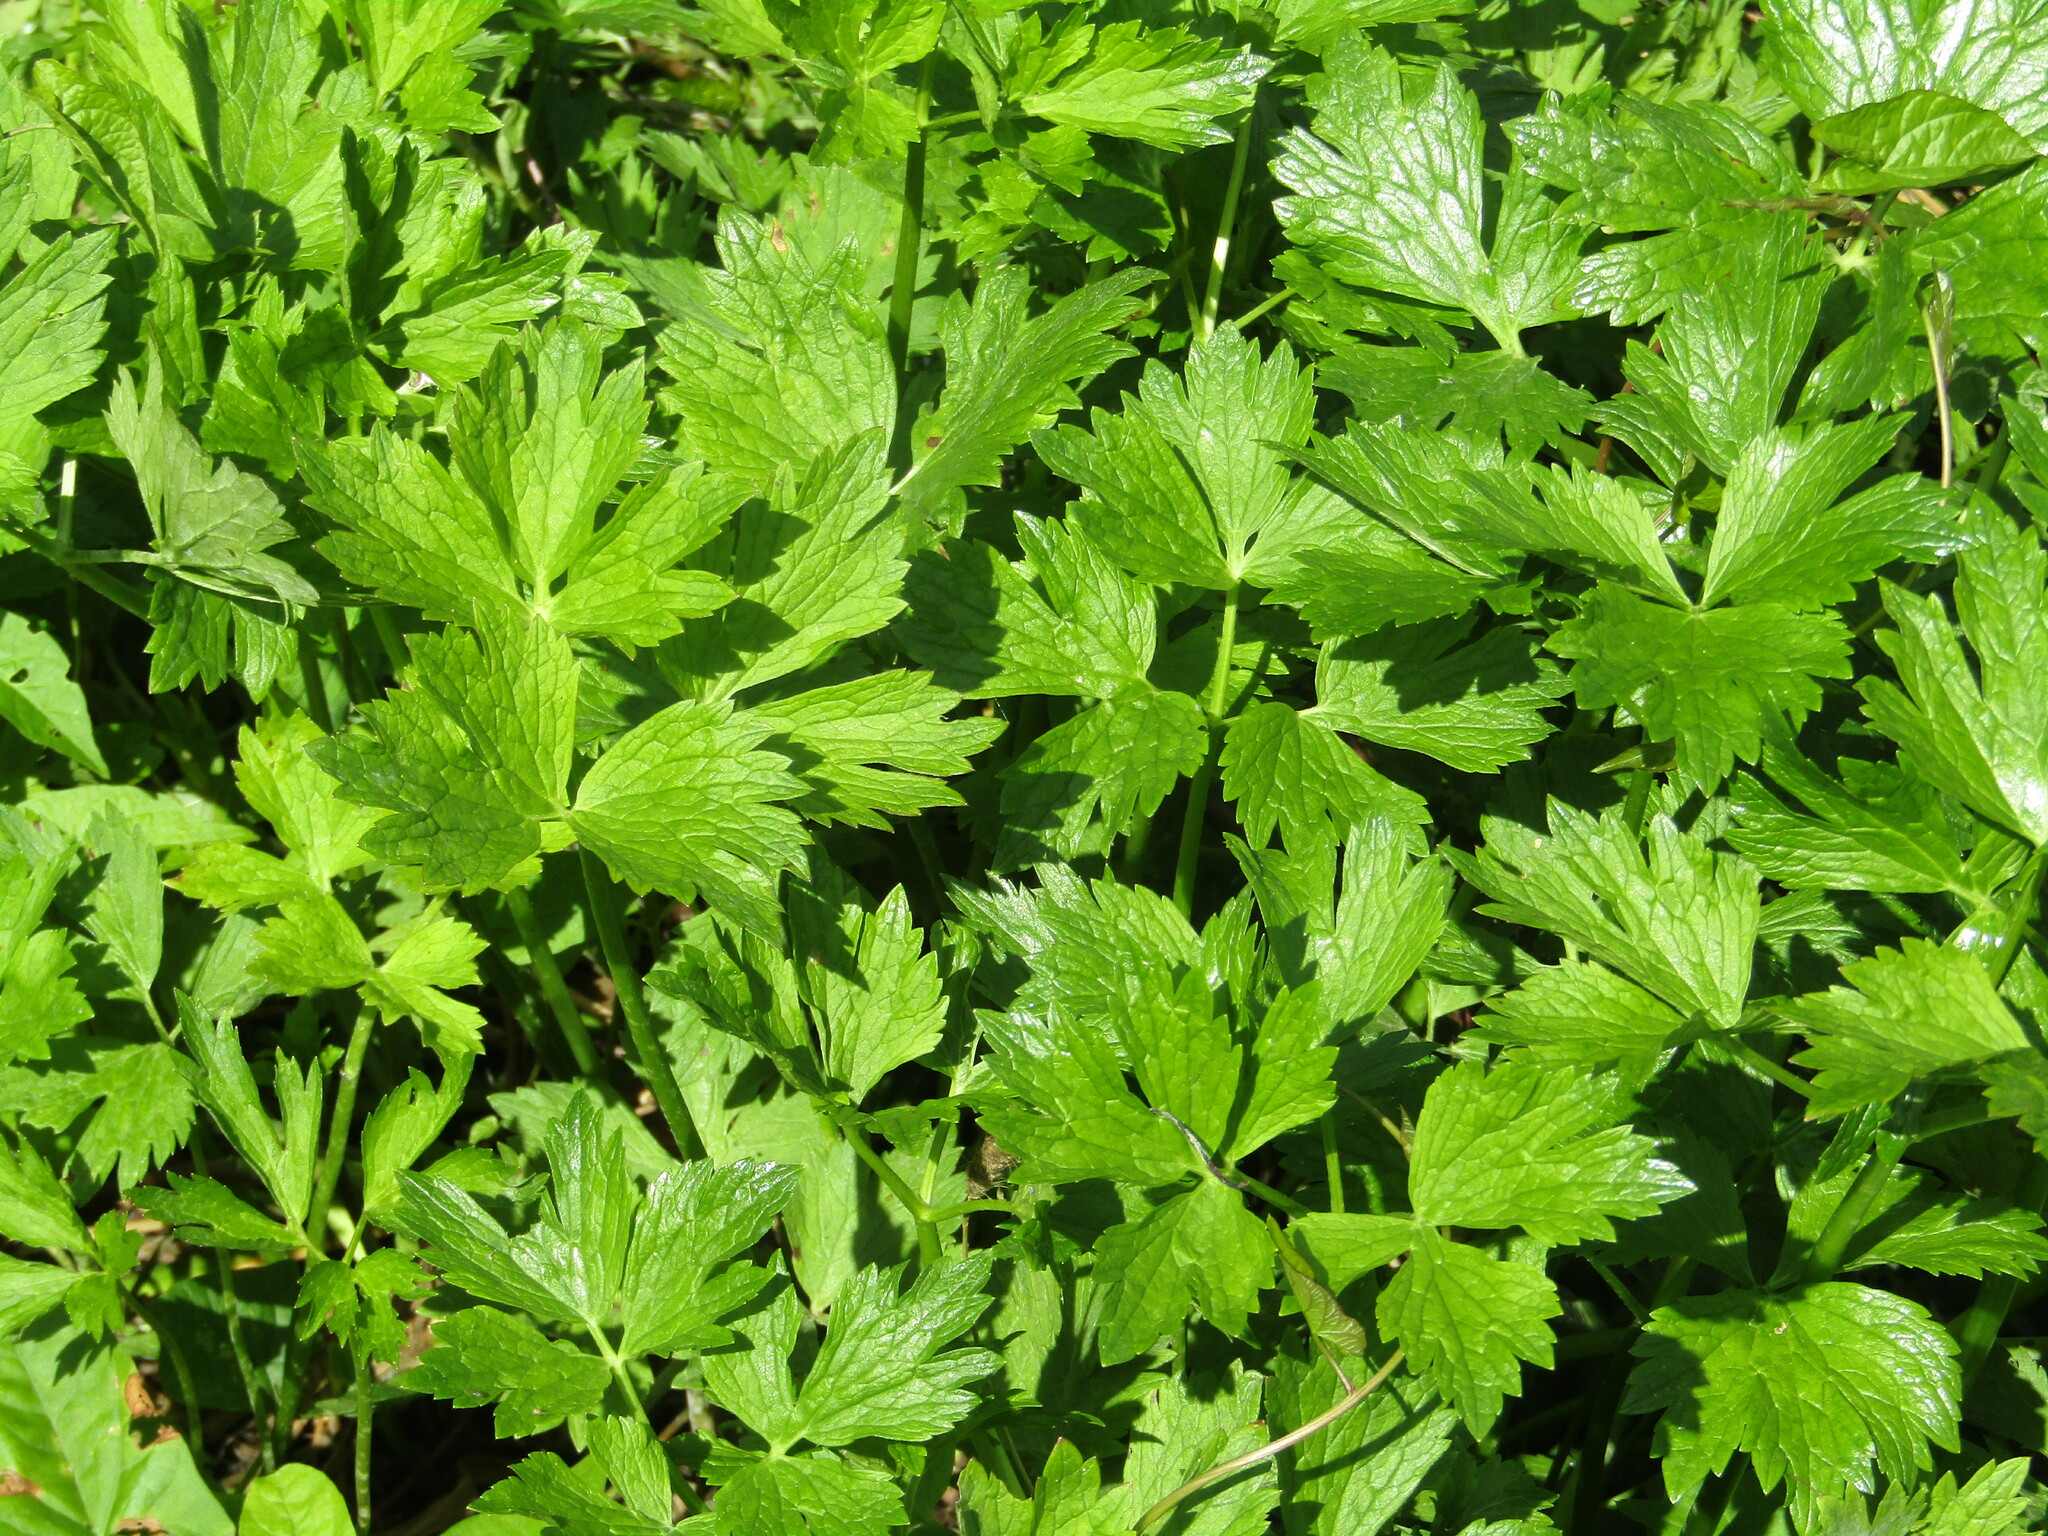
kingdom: Plantae
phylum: Tracheophyta
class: Magnoliopsida
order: Ranunculales
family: Ranunculaceae
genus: Ranunculus
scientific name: Ranunculus repens
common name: Creeping buttercup
